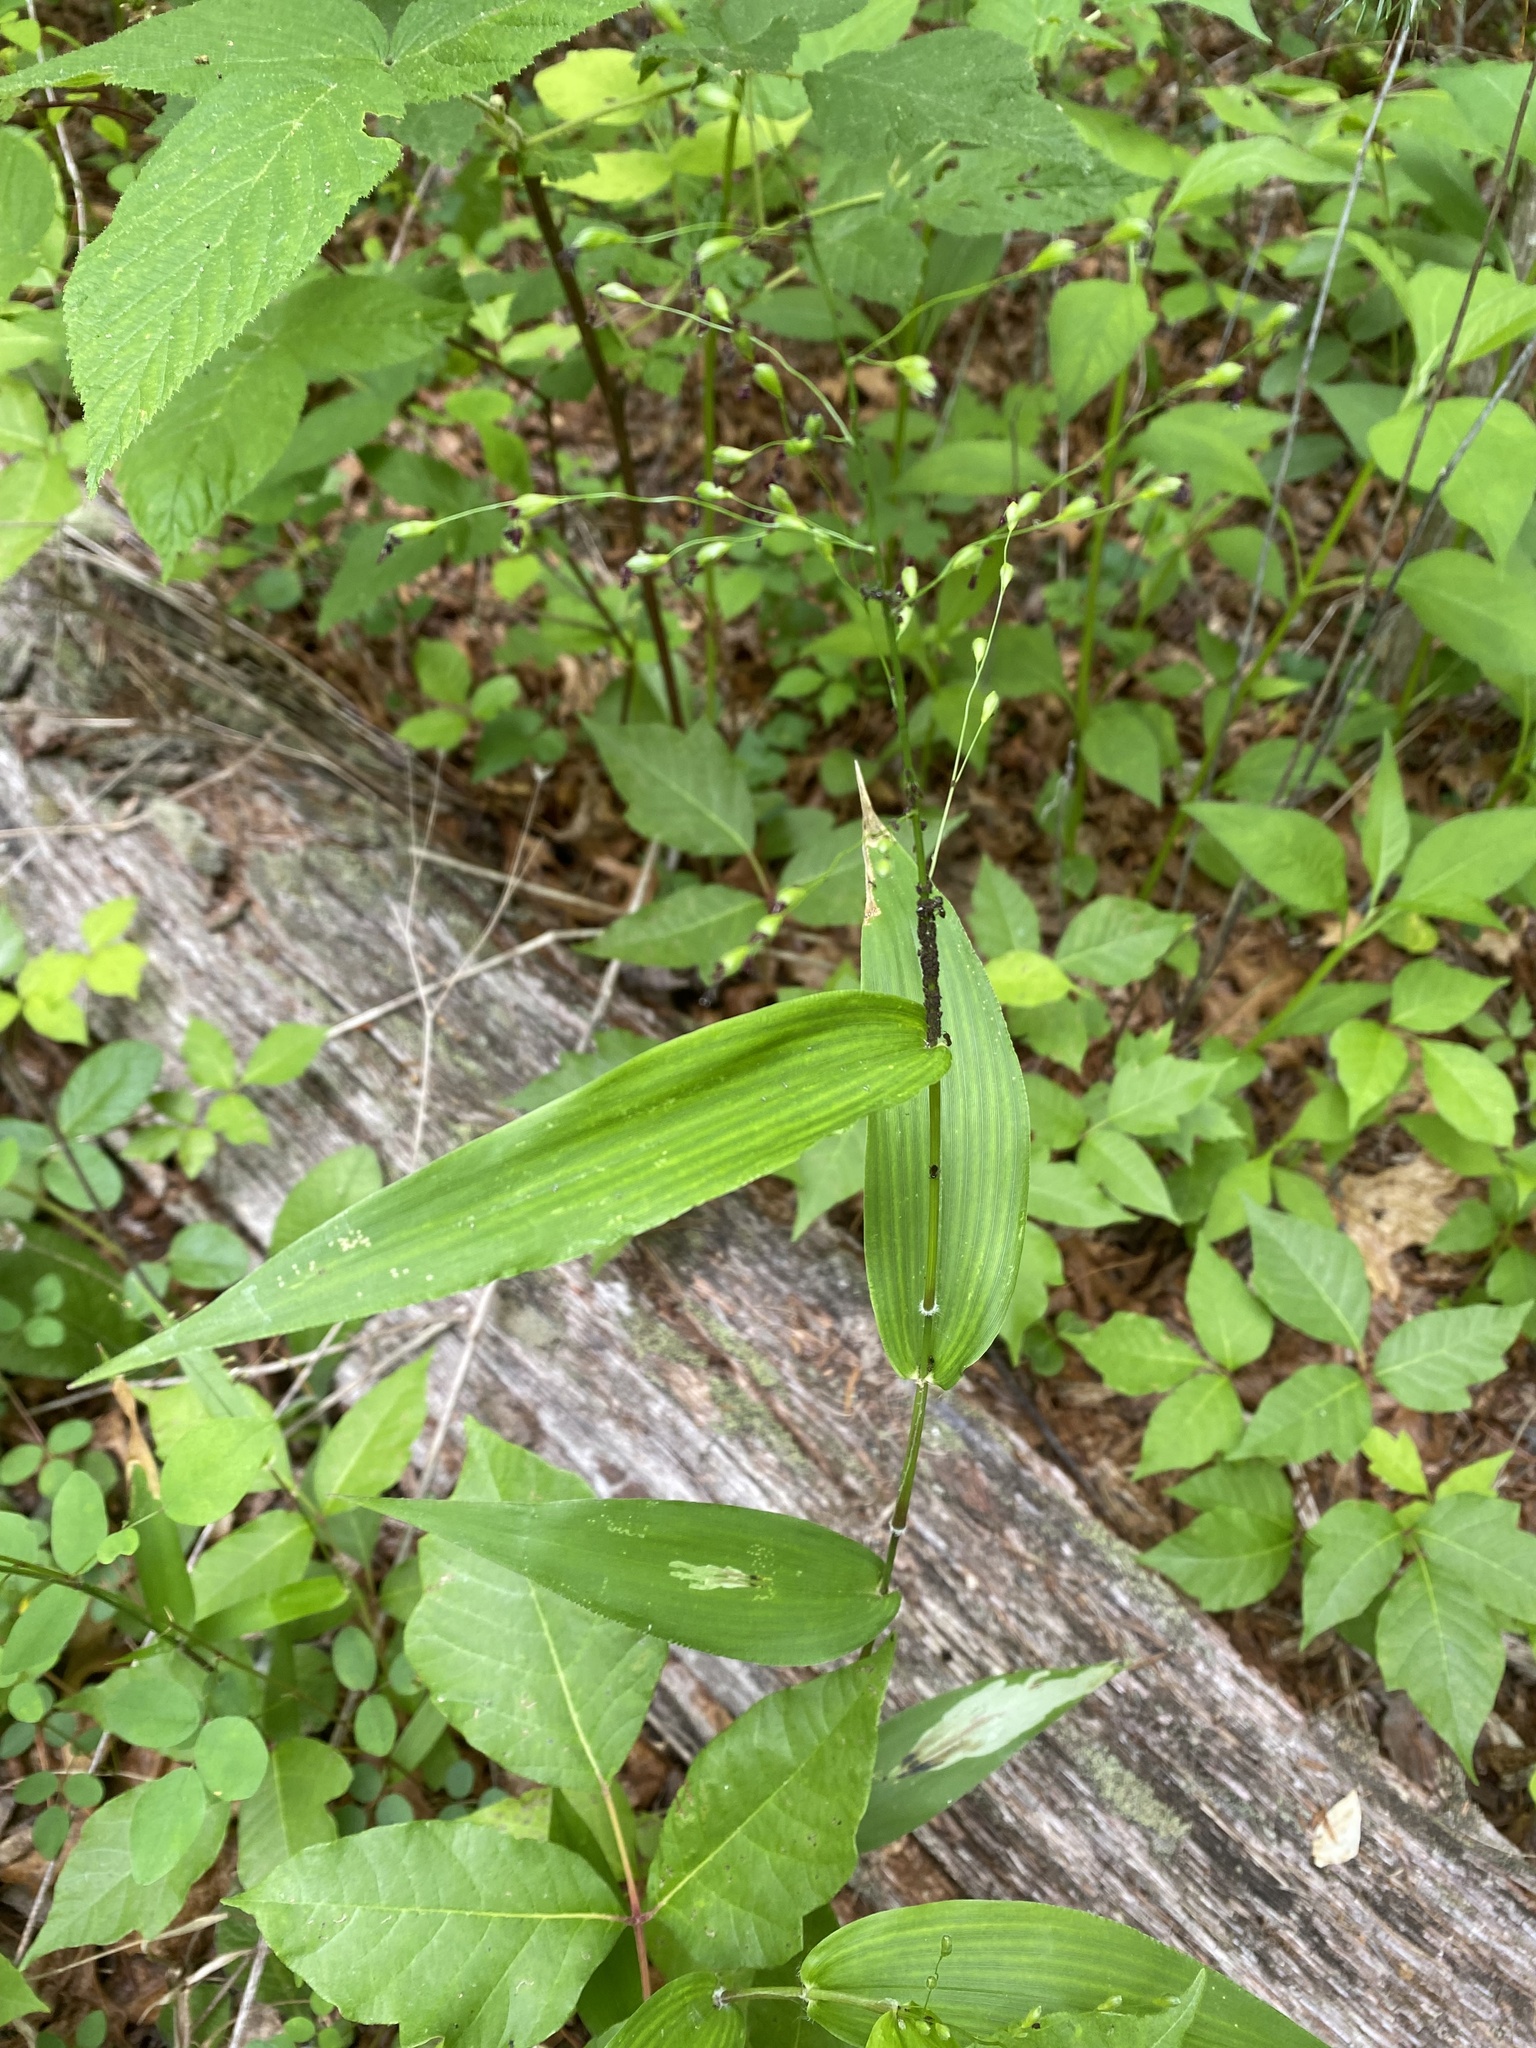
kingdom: Plantae
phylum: Tracheophyta
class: Liliopsida
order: Poales
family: Poaceae
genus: Dichanthelium
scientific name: Dichanthelium boscii
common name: Bosc's panic grass
